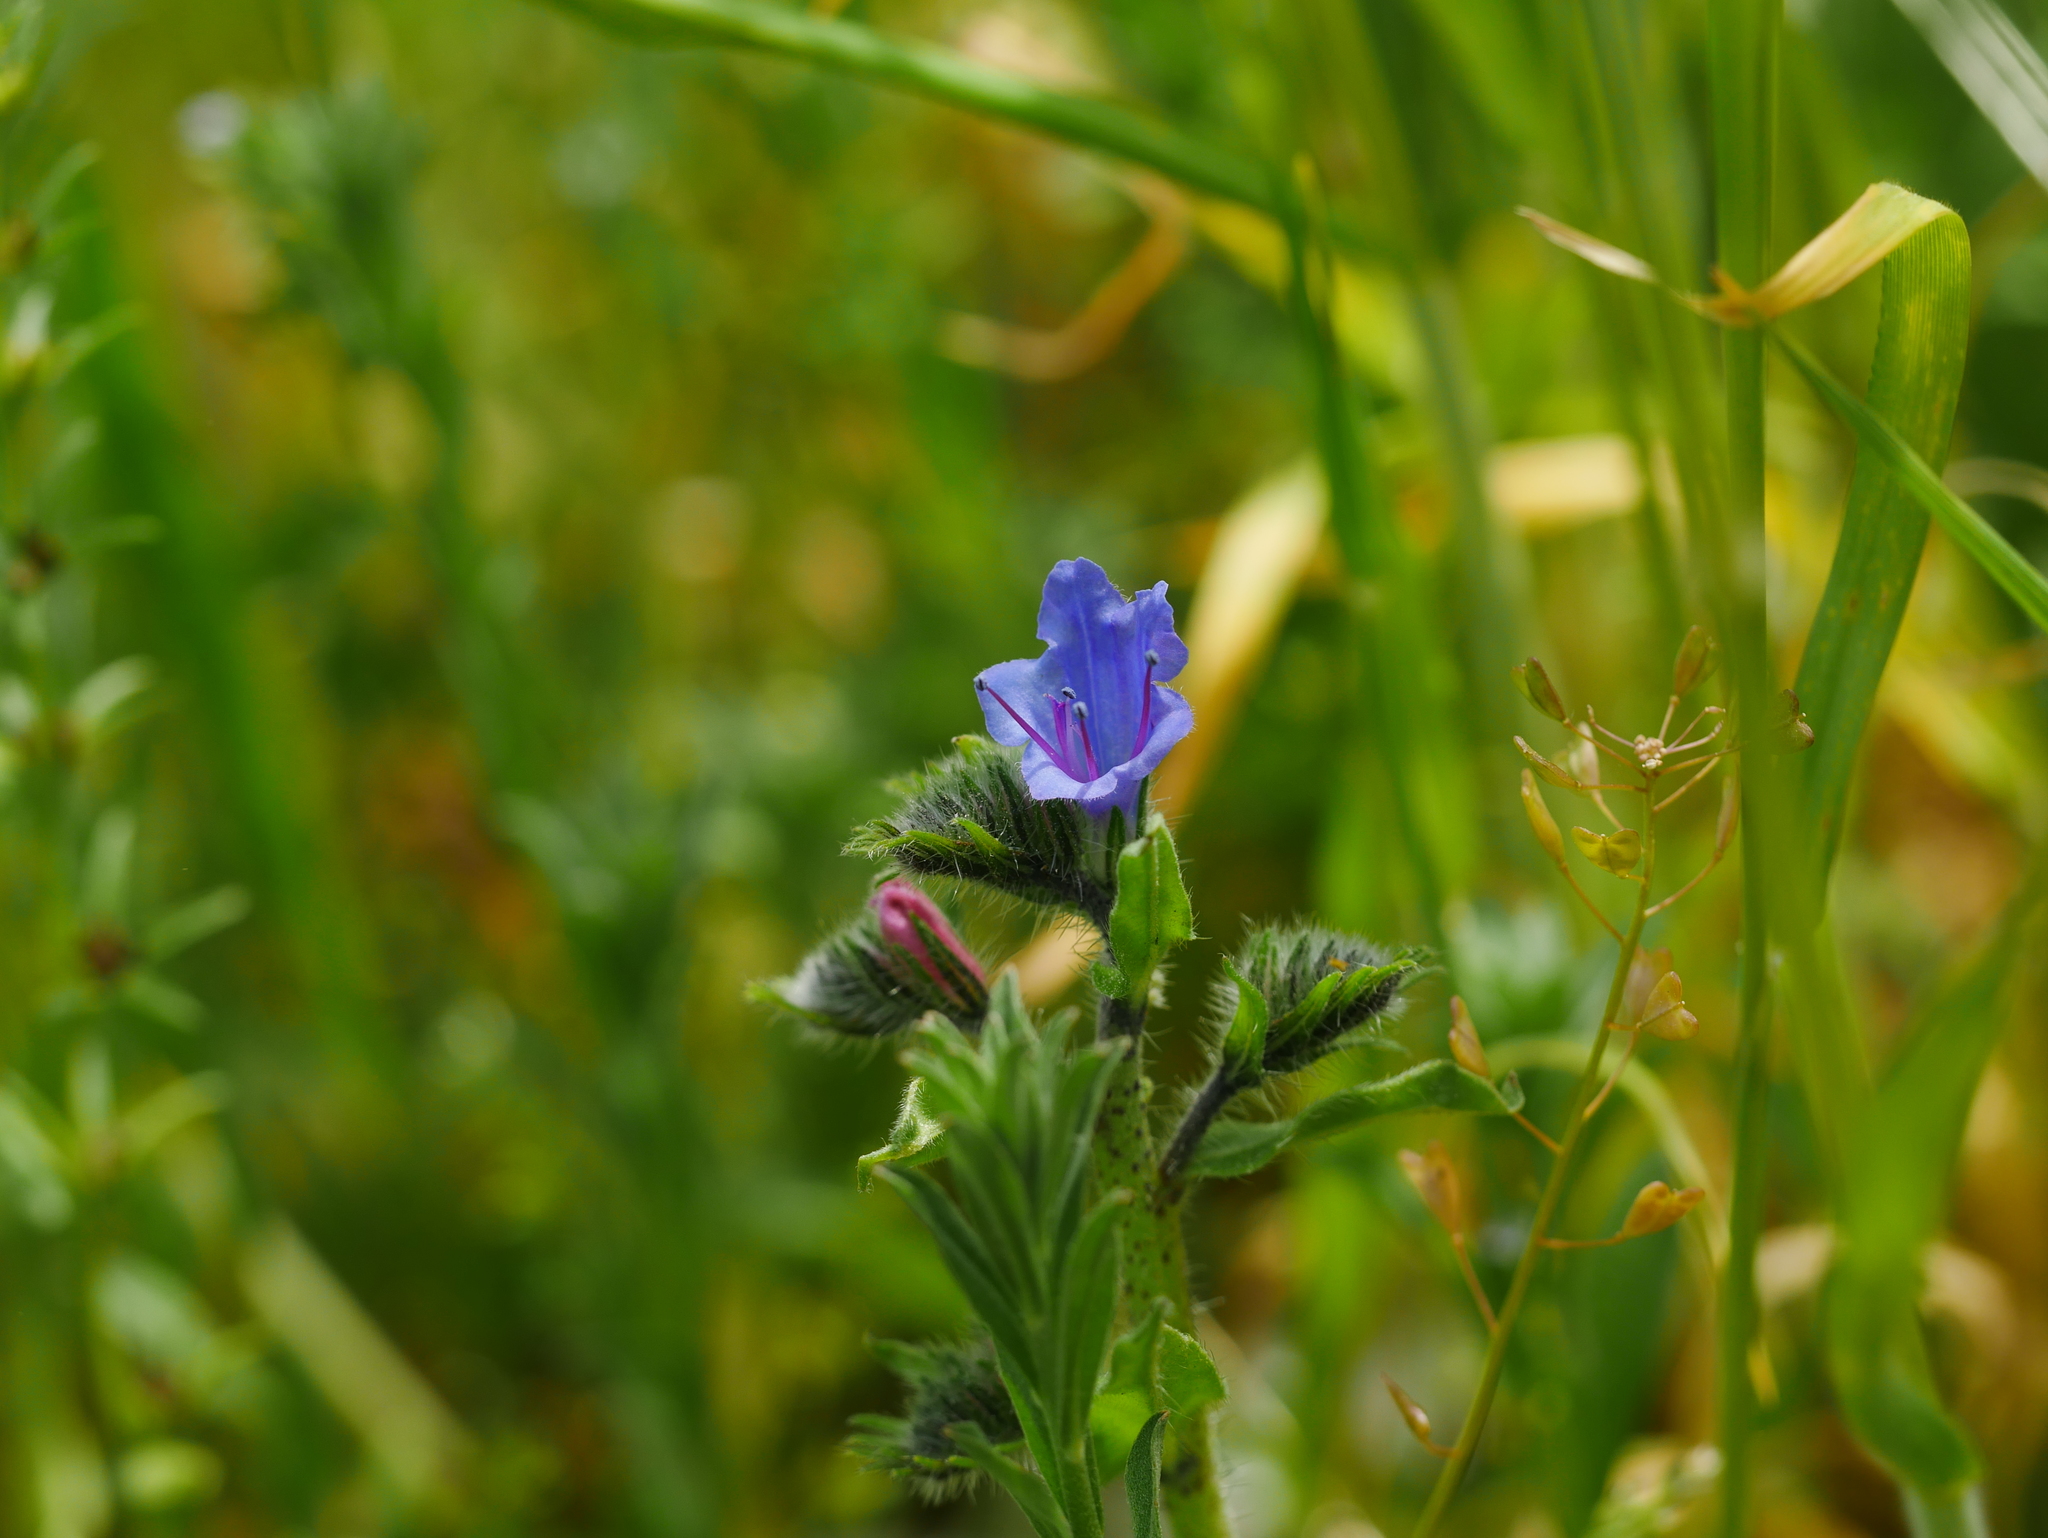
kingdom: Plantae
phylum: Tracheophyta
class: Magnoliopsida
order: Boraginales
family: Boraginaceae
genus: Echium
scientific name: Echium vulgare
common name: Common viper's bugloss
